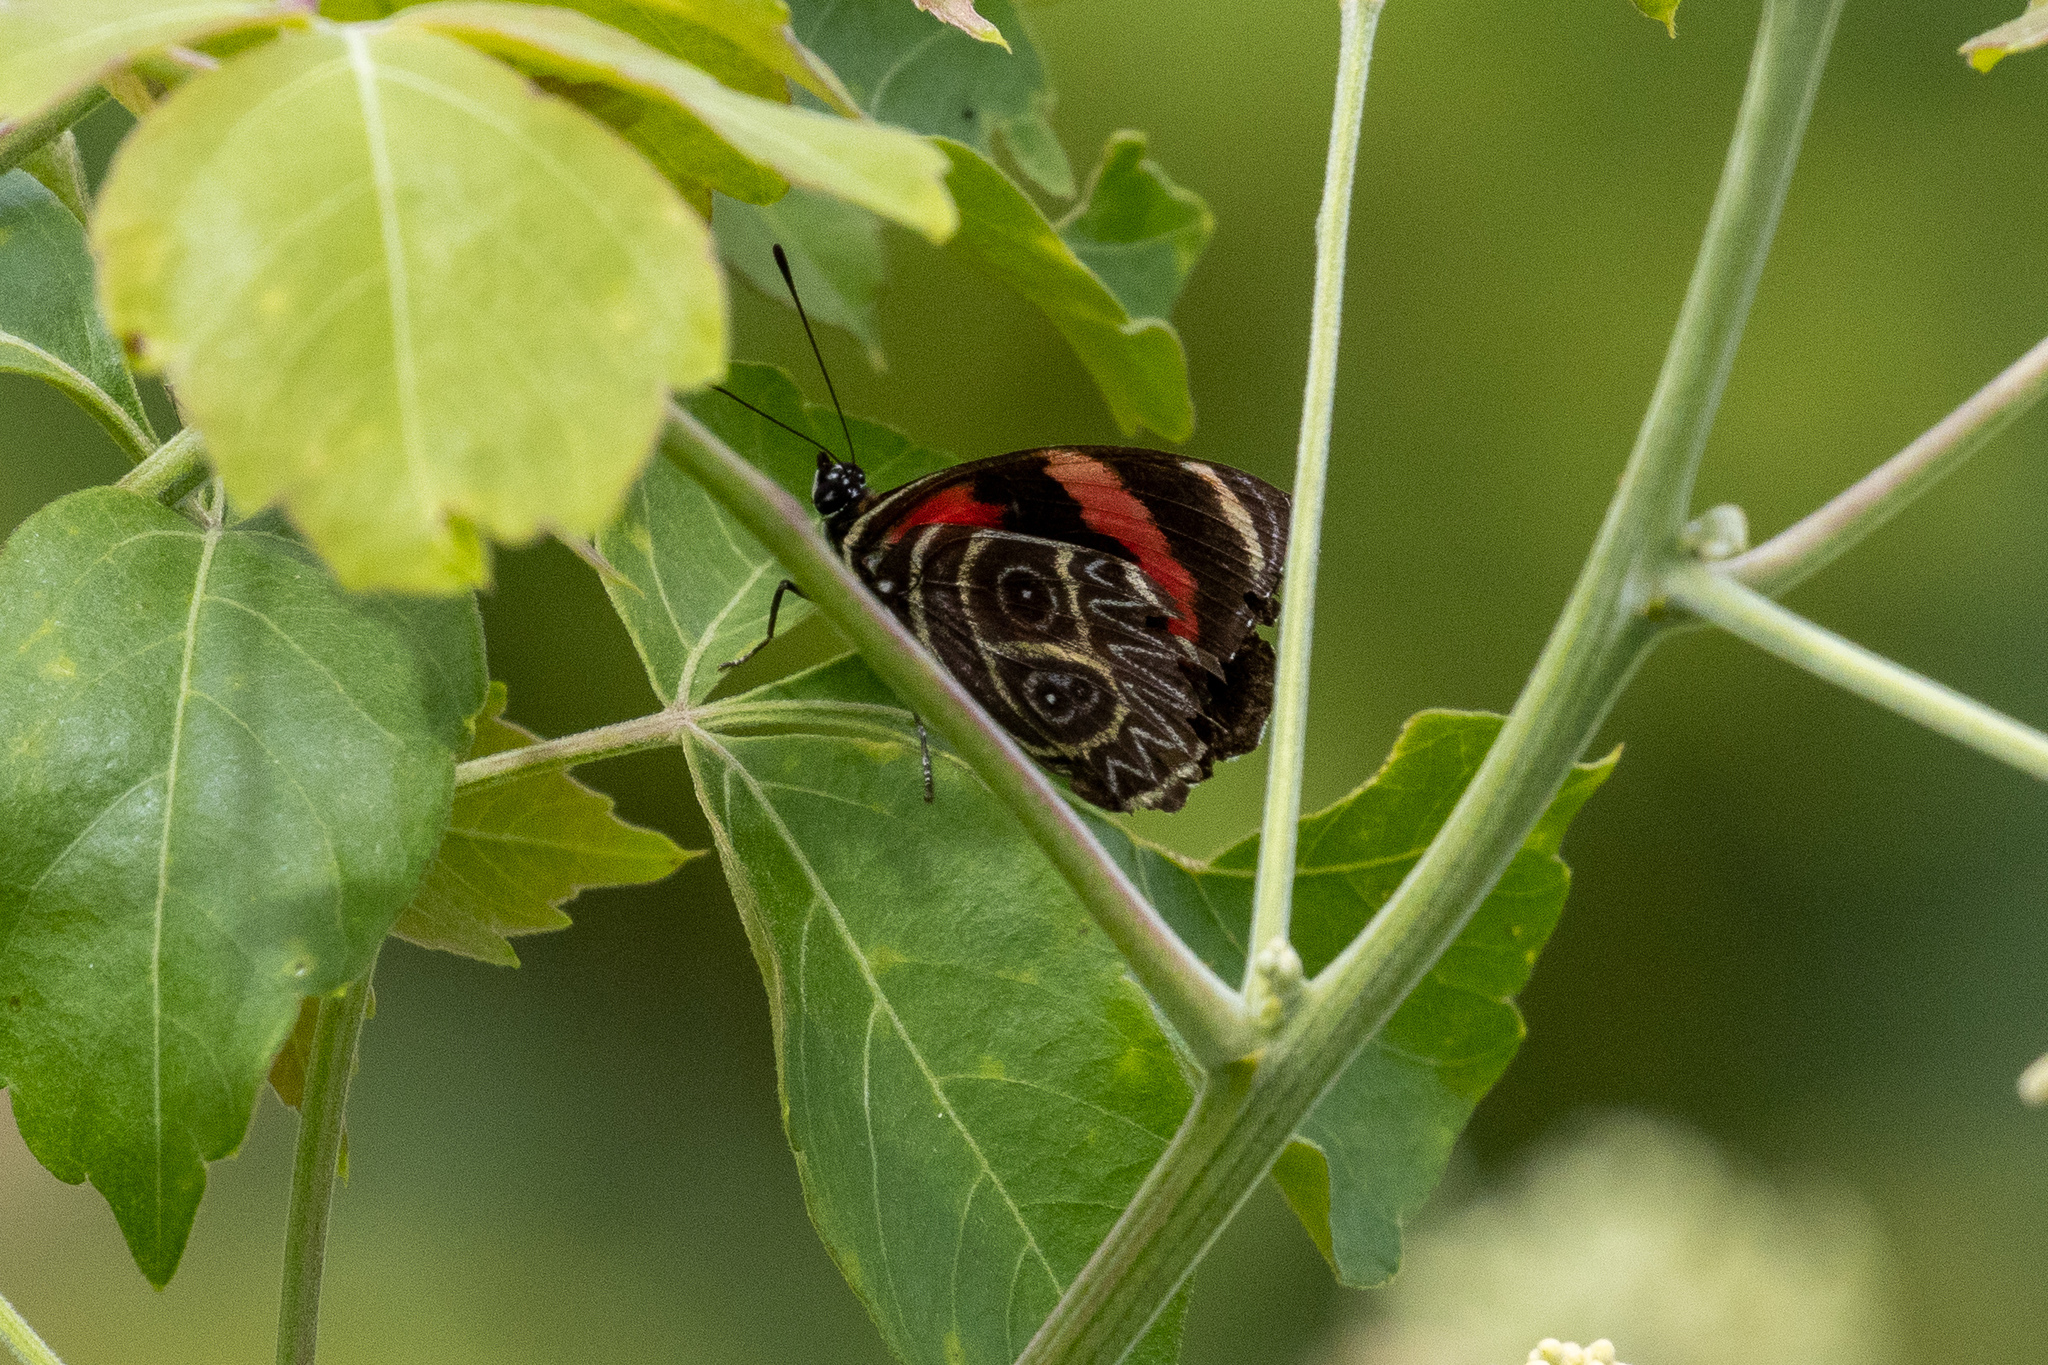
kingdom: Animalia
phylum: Arthropoda
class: Insecta
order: Lepidoptera
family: Nymphalidae
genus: Catagramma
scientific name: Catagramma Callicore sorana
